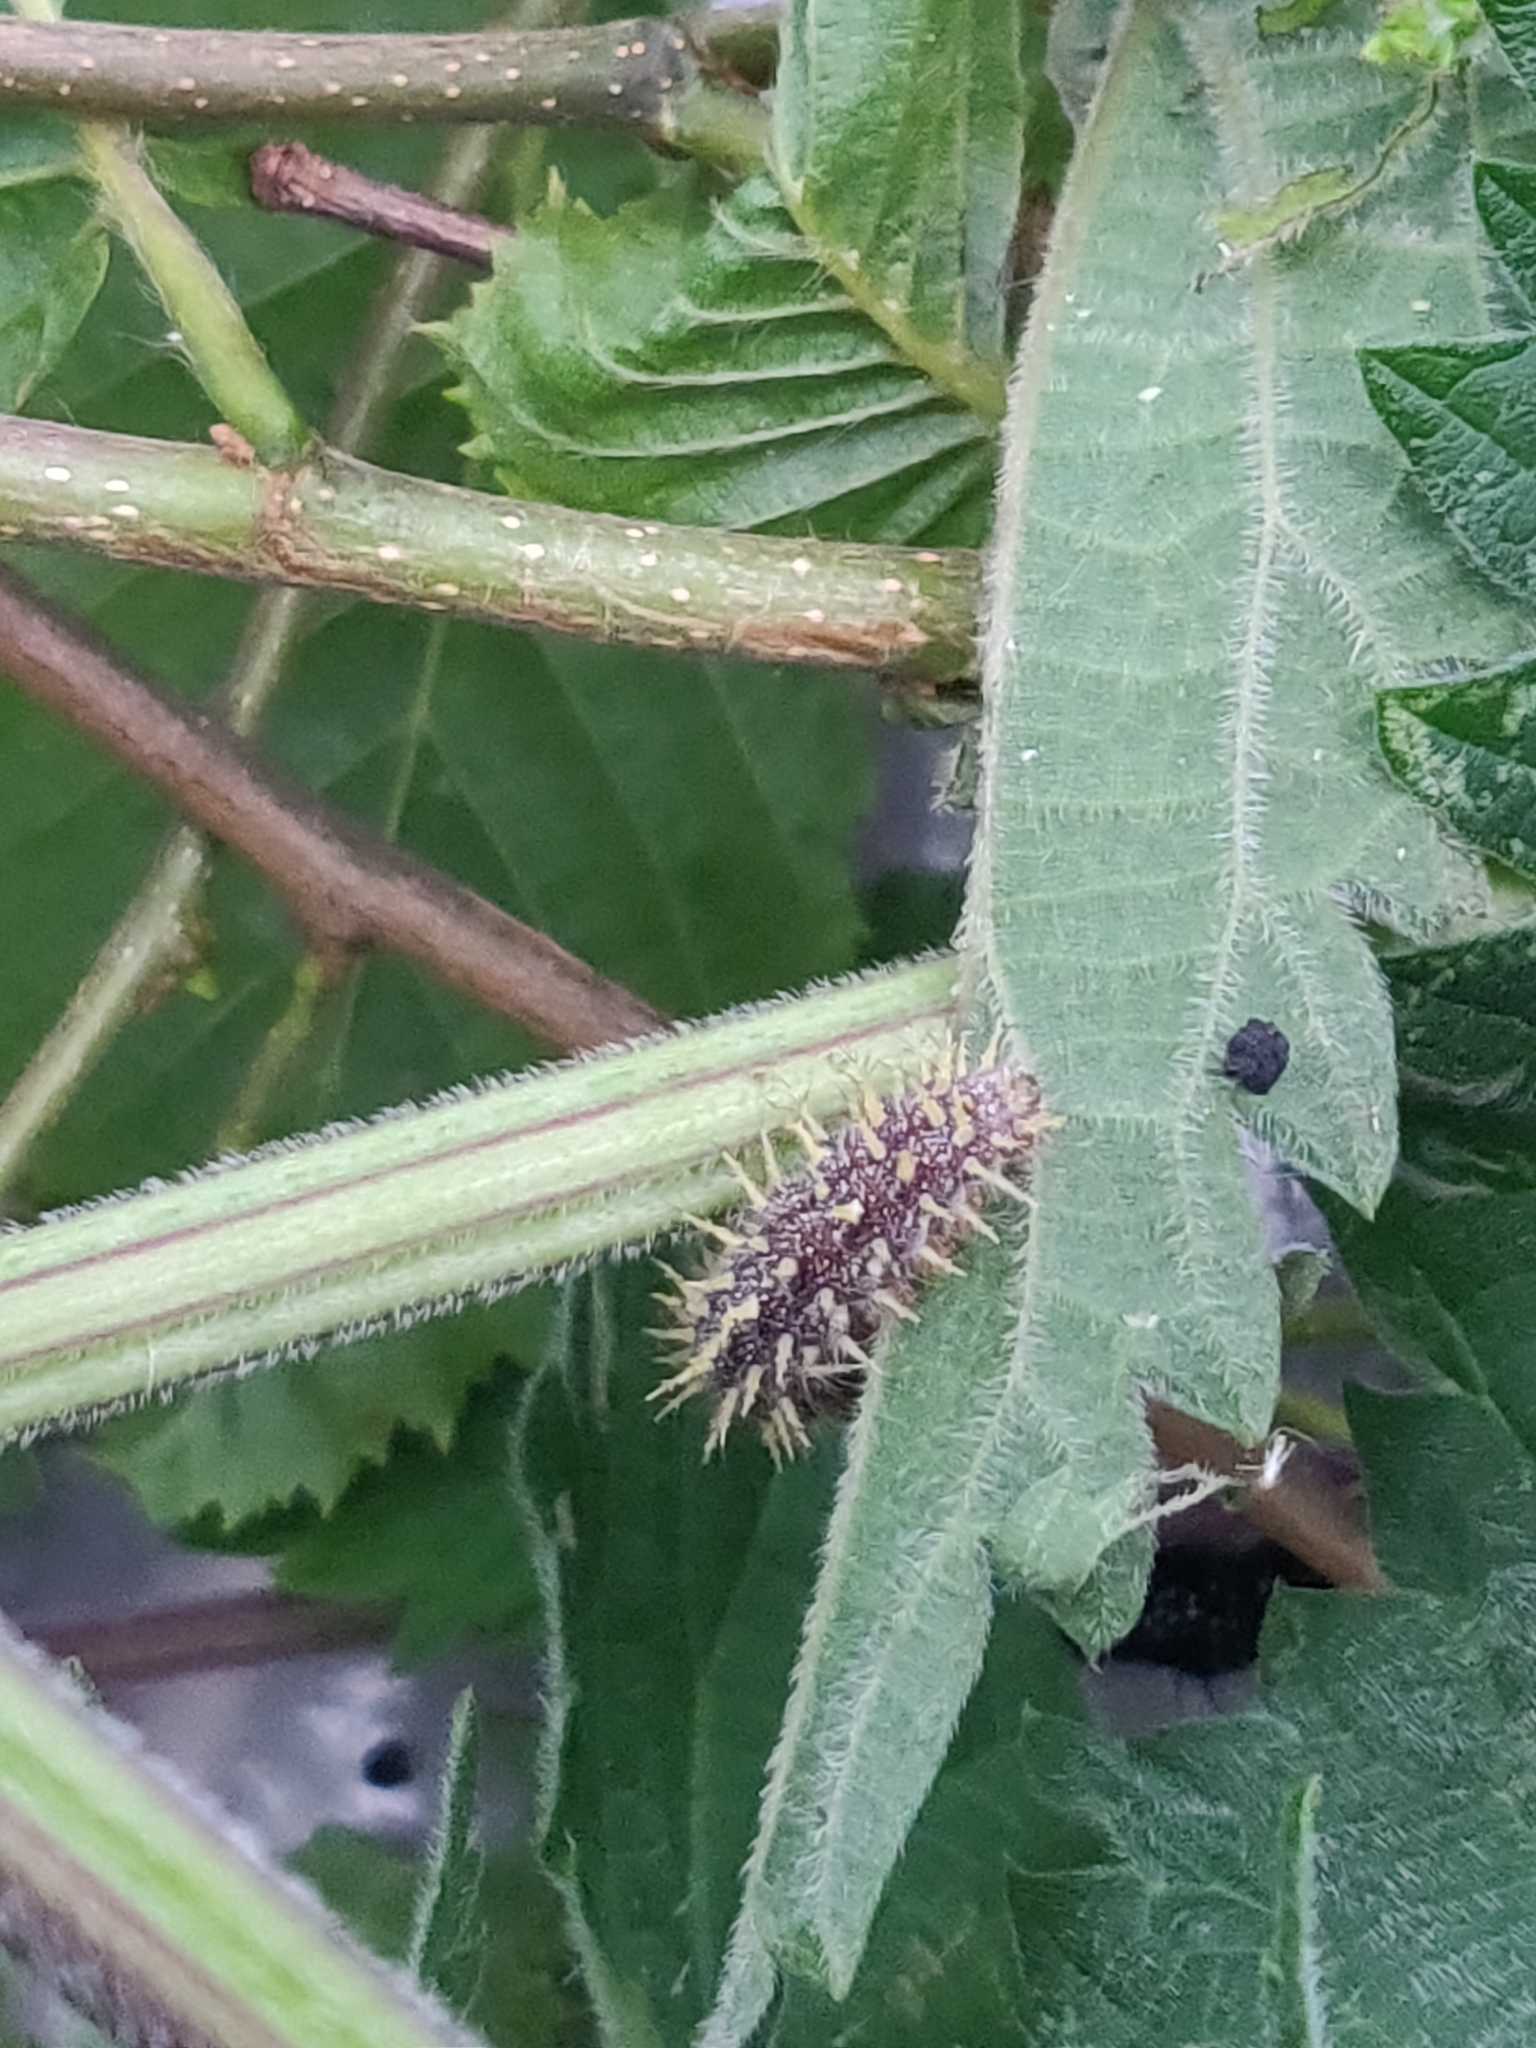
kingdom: Animalia
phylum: Arthropoda
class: Insecta
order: Lepidoptera
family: Nymphalidae
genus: Vanessa
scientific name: Vanessa atalanta
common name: Red admiral
